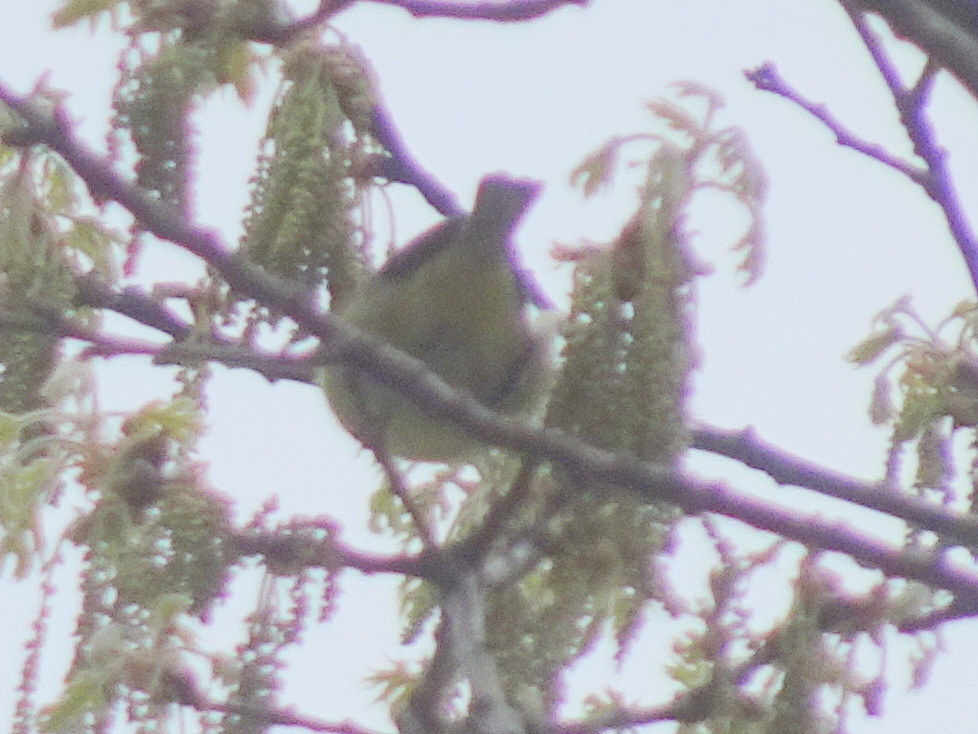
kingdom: Animalia
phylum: Chordata
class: Aves
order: Passeriformes
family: Parulidae
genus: Leiothlypis
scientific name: Leiothlypis celata
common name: Orange-crowned warbler
